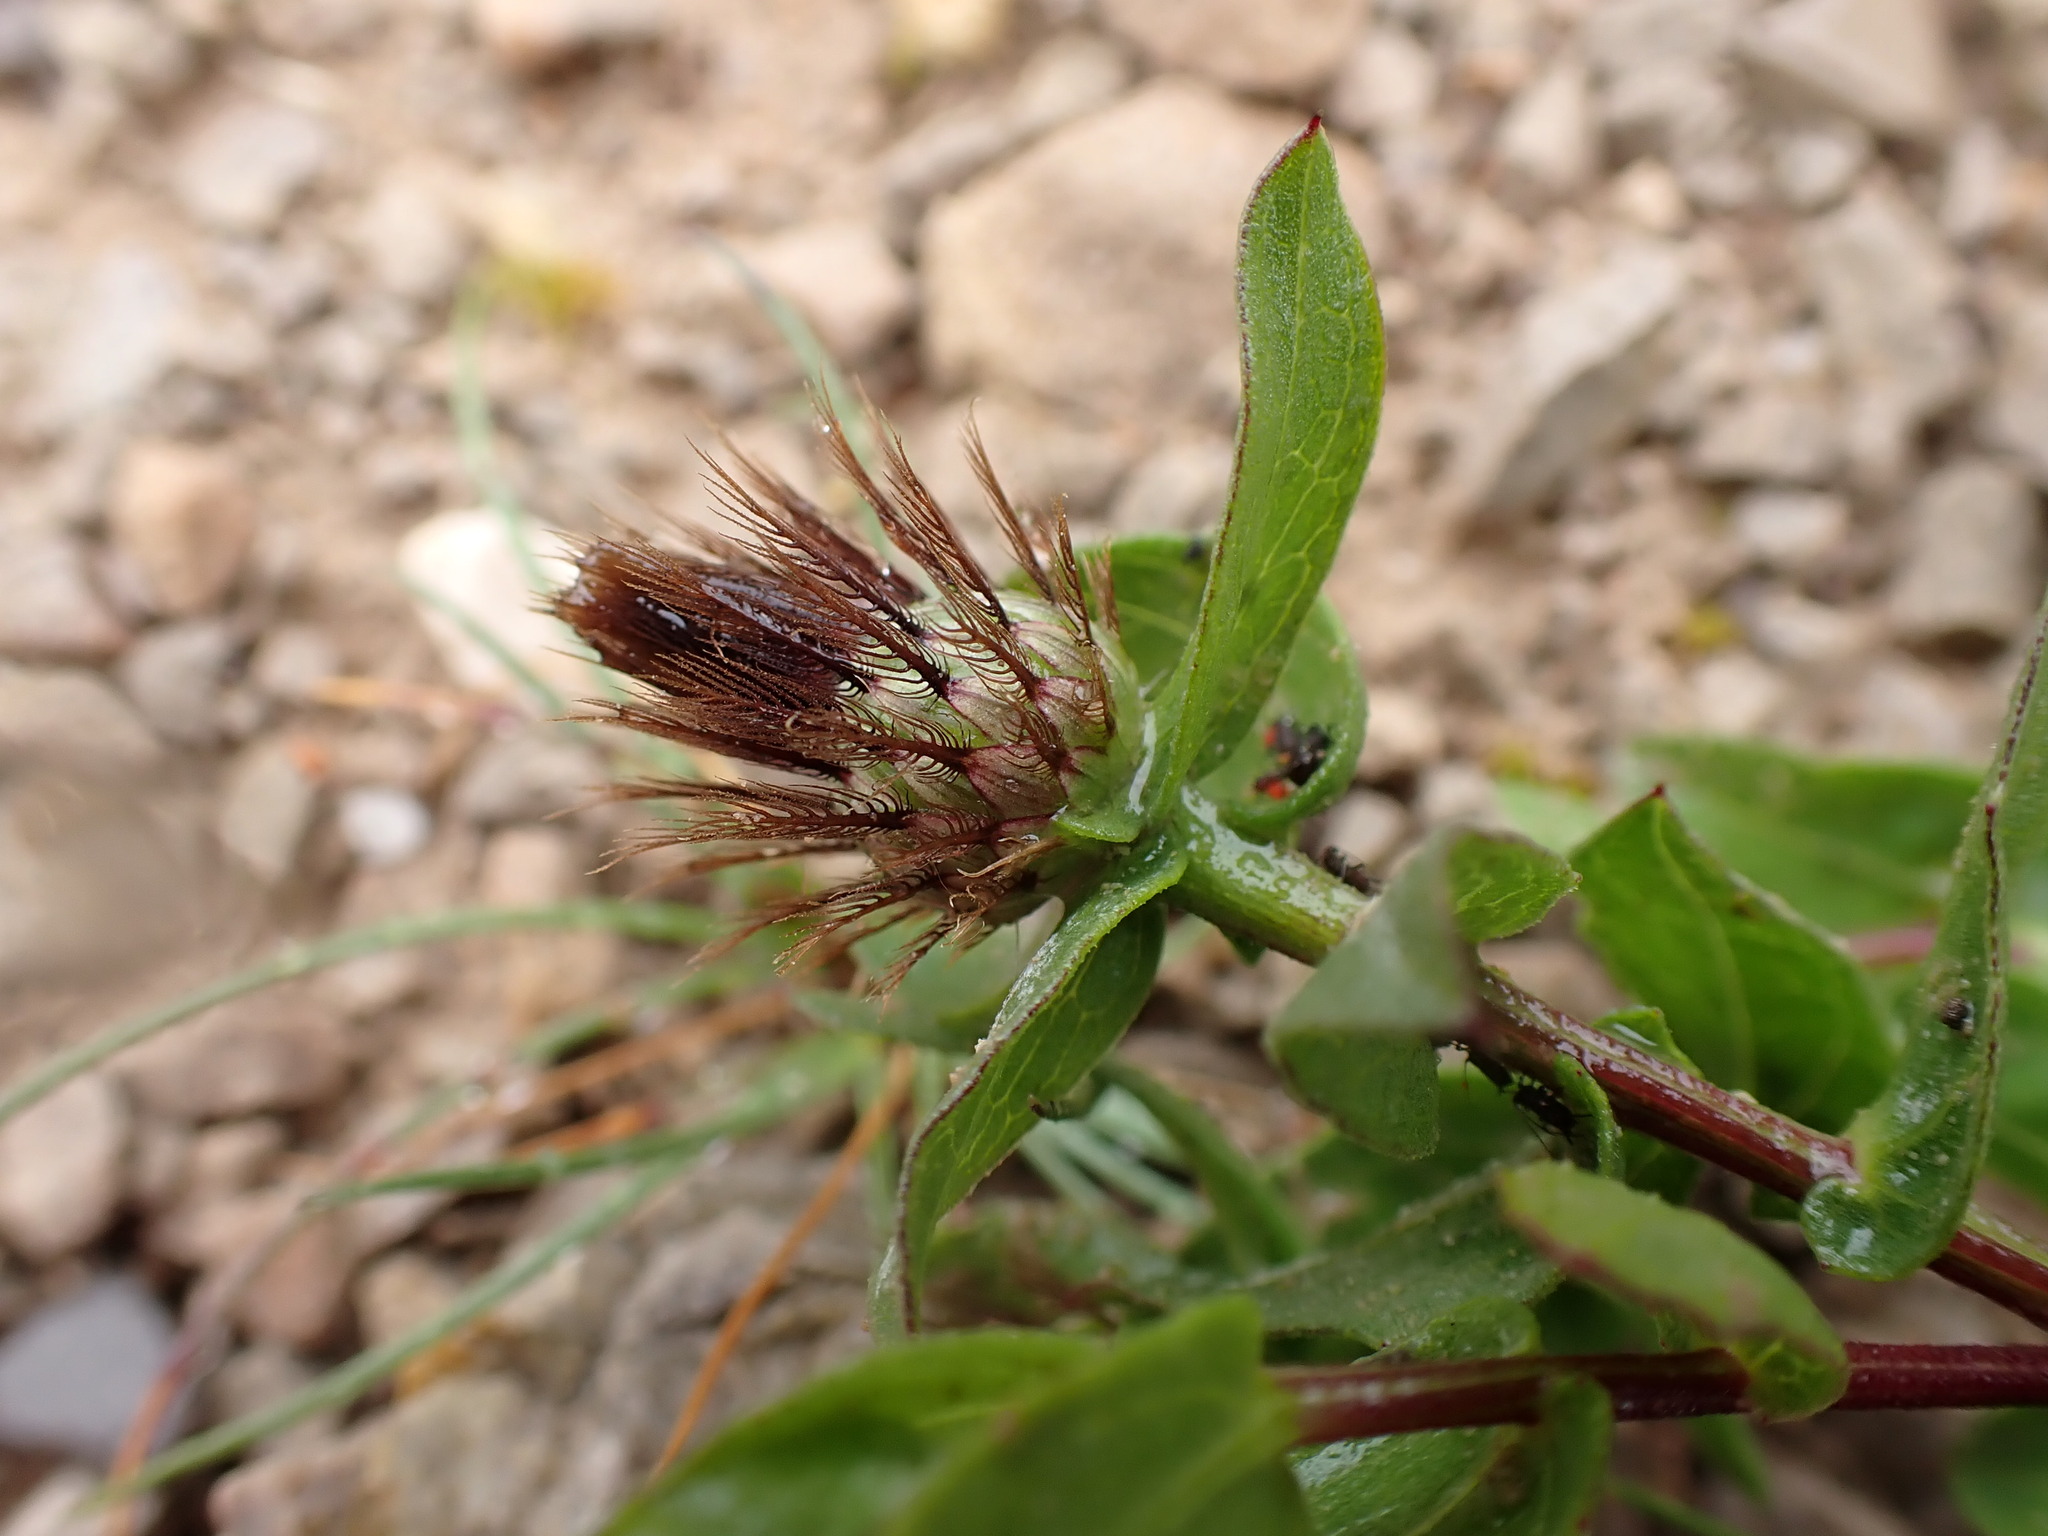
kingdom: Plantae
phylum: Tracheophyta
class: Magnoliopsida
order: Asterales
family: Asteraceae
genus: Centaurea
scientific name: Centaurea pectinata
